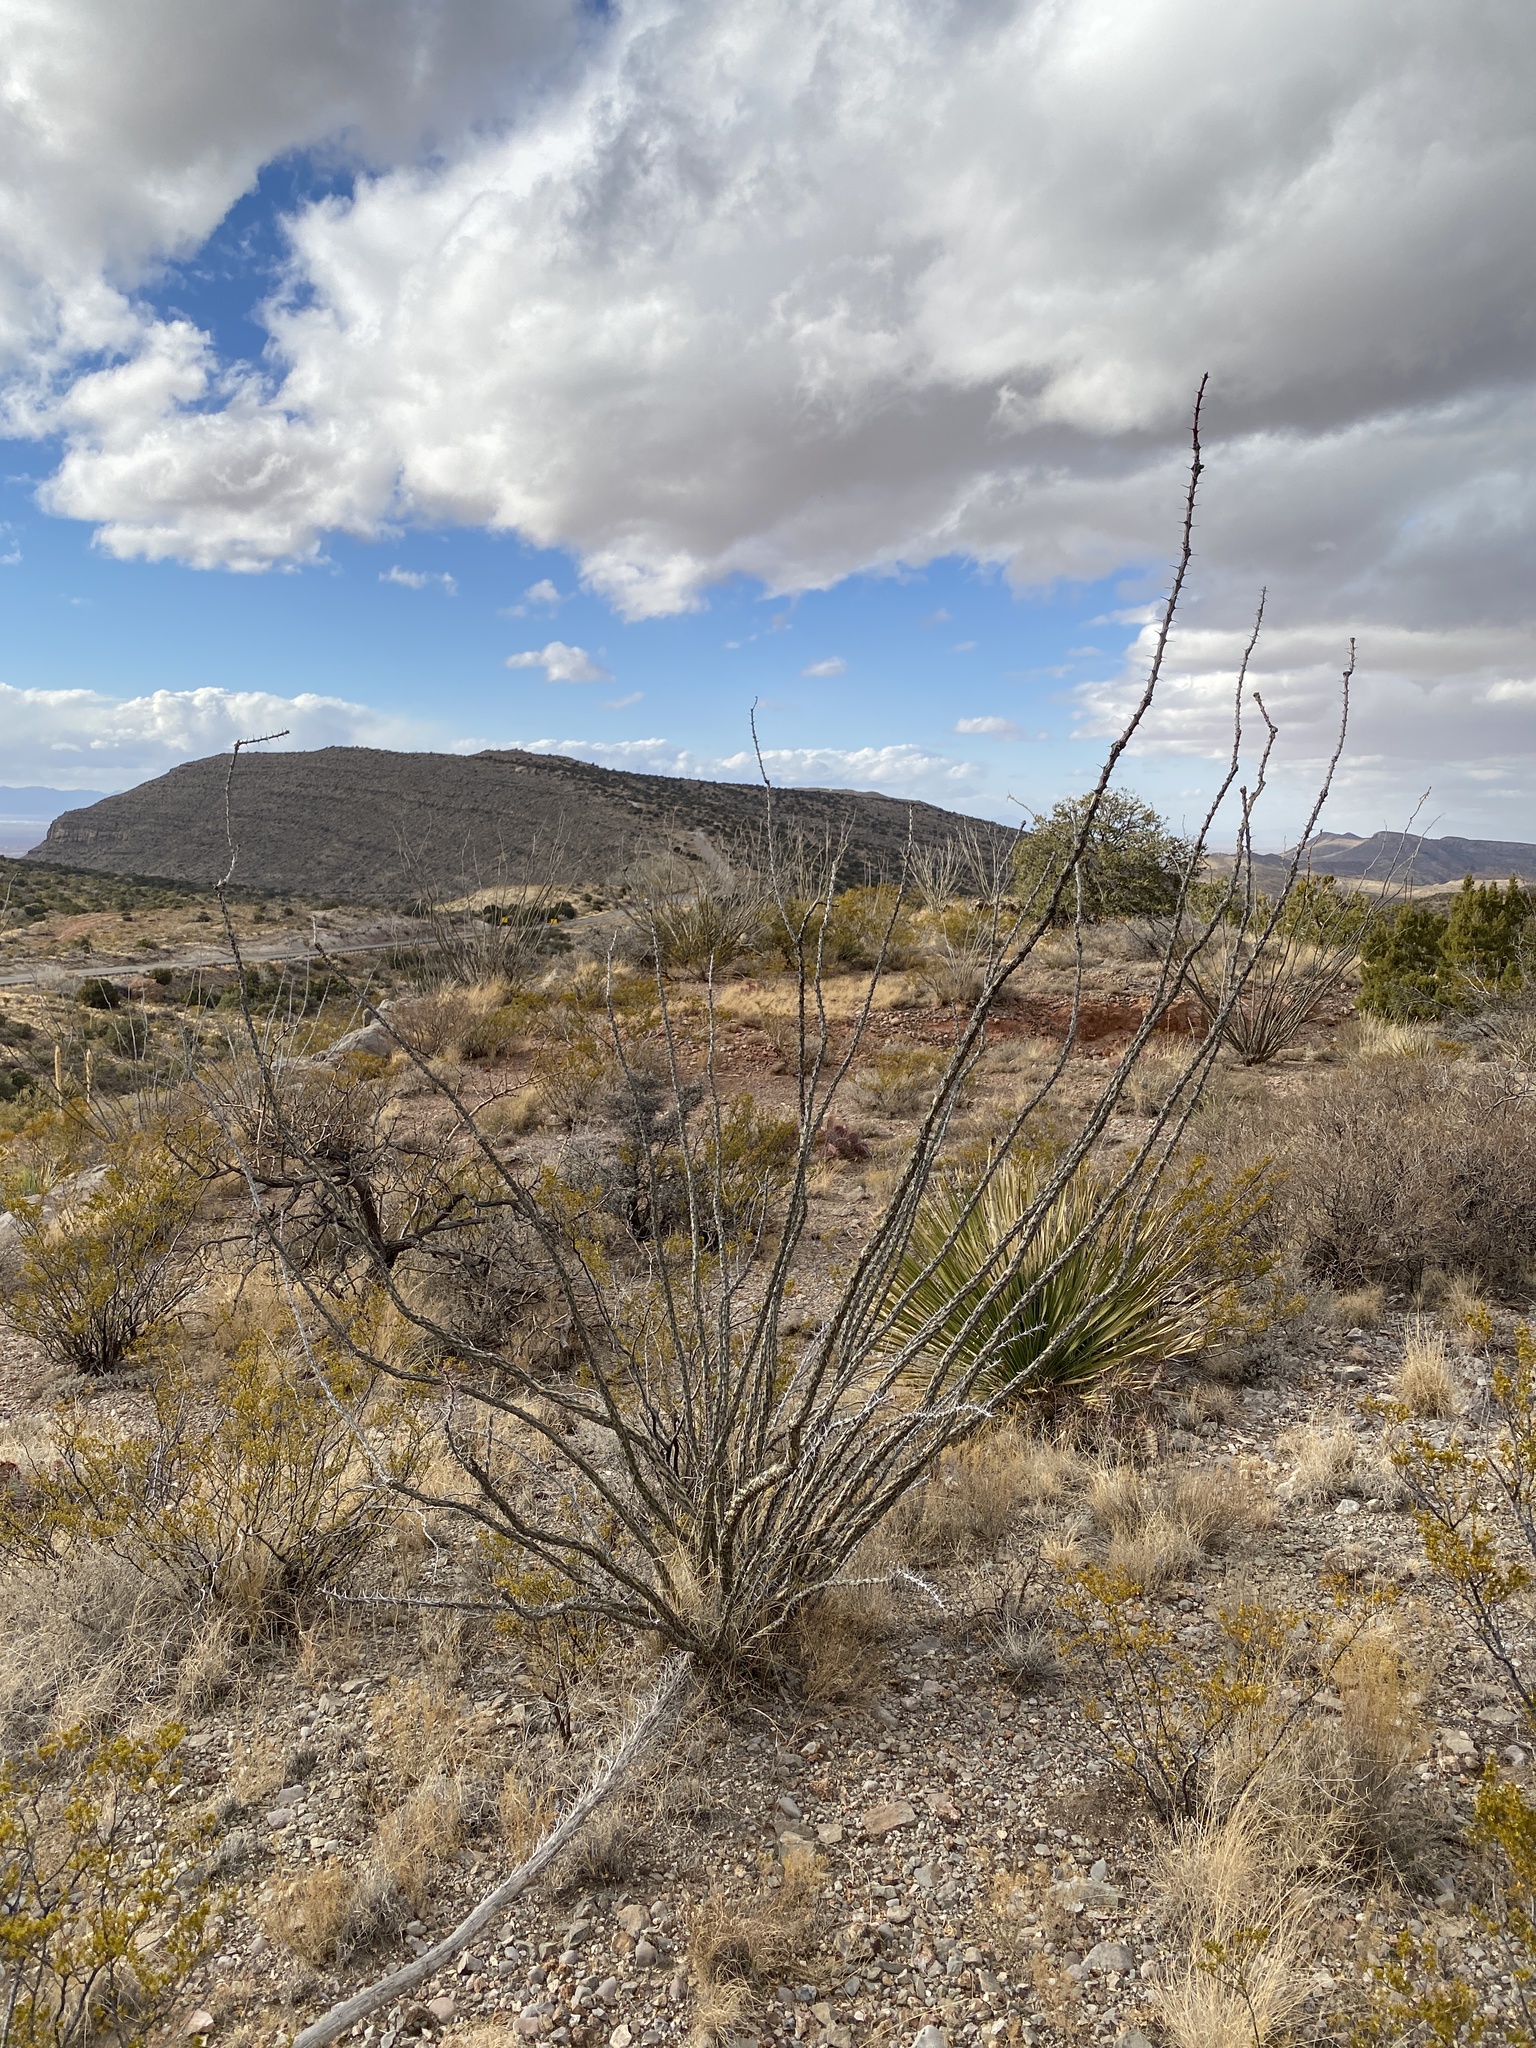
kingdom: Plantae
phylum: Tracheophyta
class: Magnoliopsida
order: Ericales
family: Fouquieriaceae
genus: Fouquieria
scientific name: Fouquieria splendens
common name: Vine-cactus
